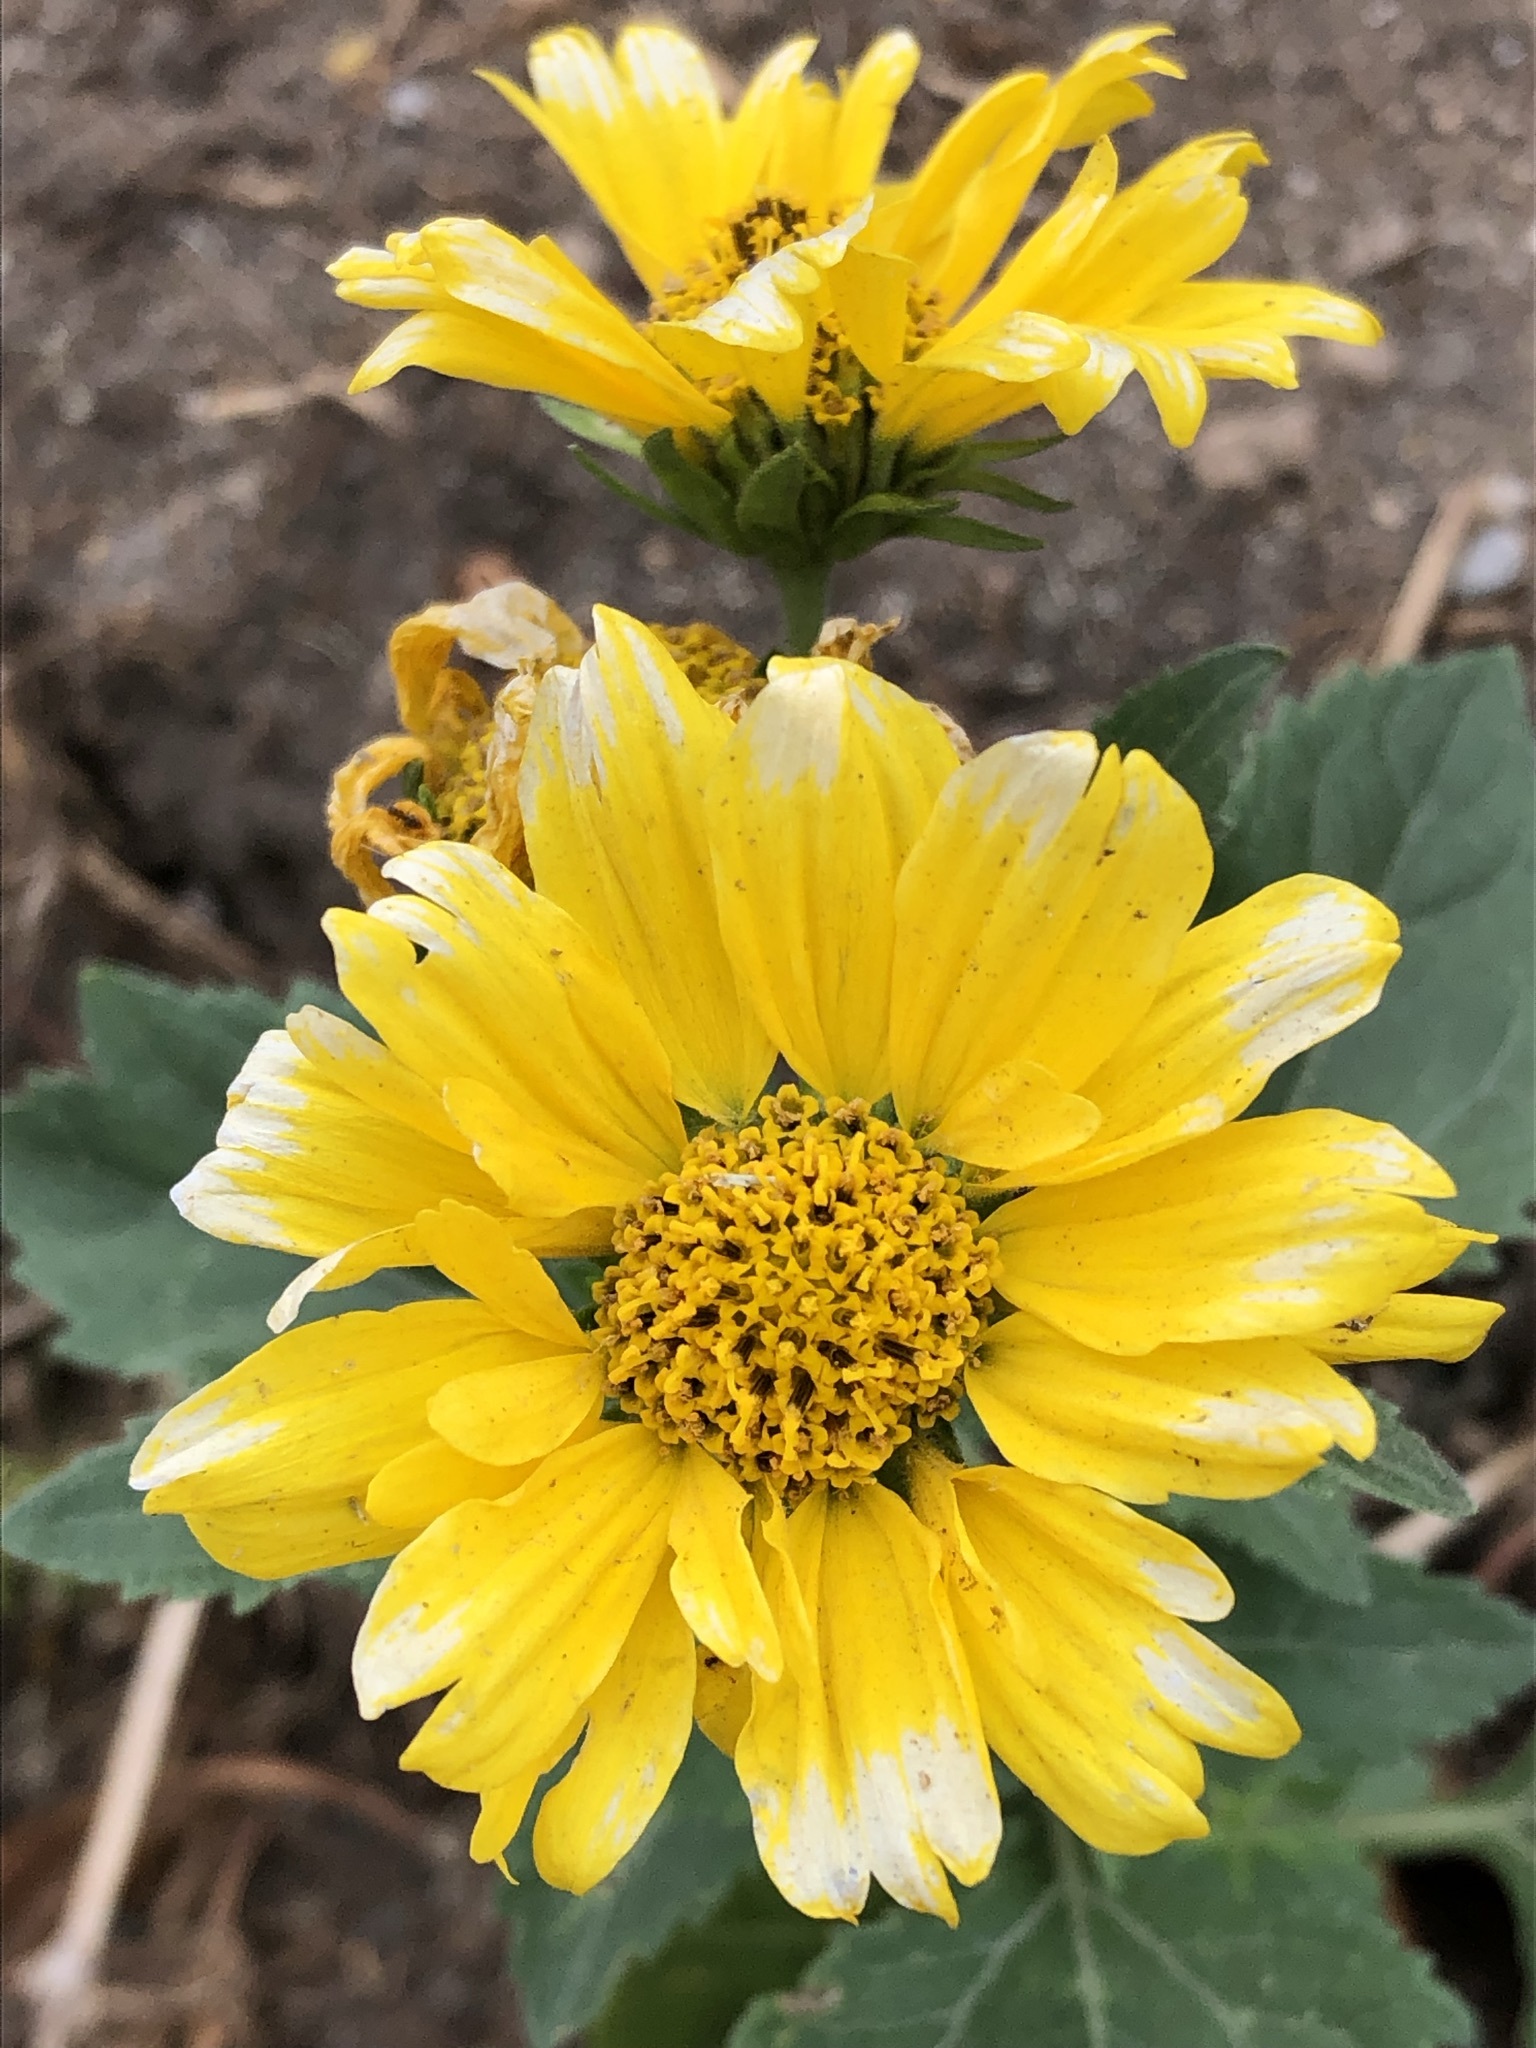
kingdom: Plantae
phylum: Tracheophyta
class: Magnoliopsida
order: Asterales
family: Asteraceae
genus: Verbesina
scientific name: Verbesina encelioides
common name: Golden crownbeard
